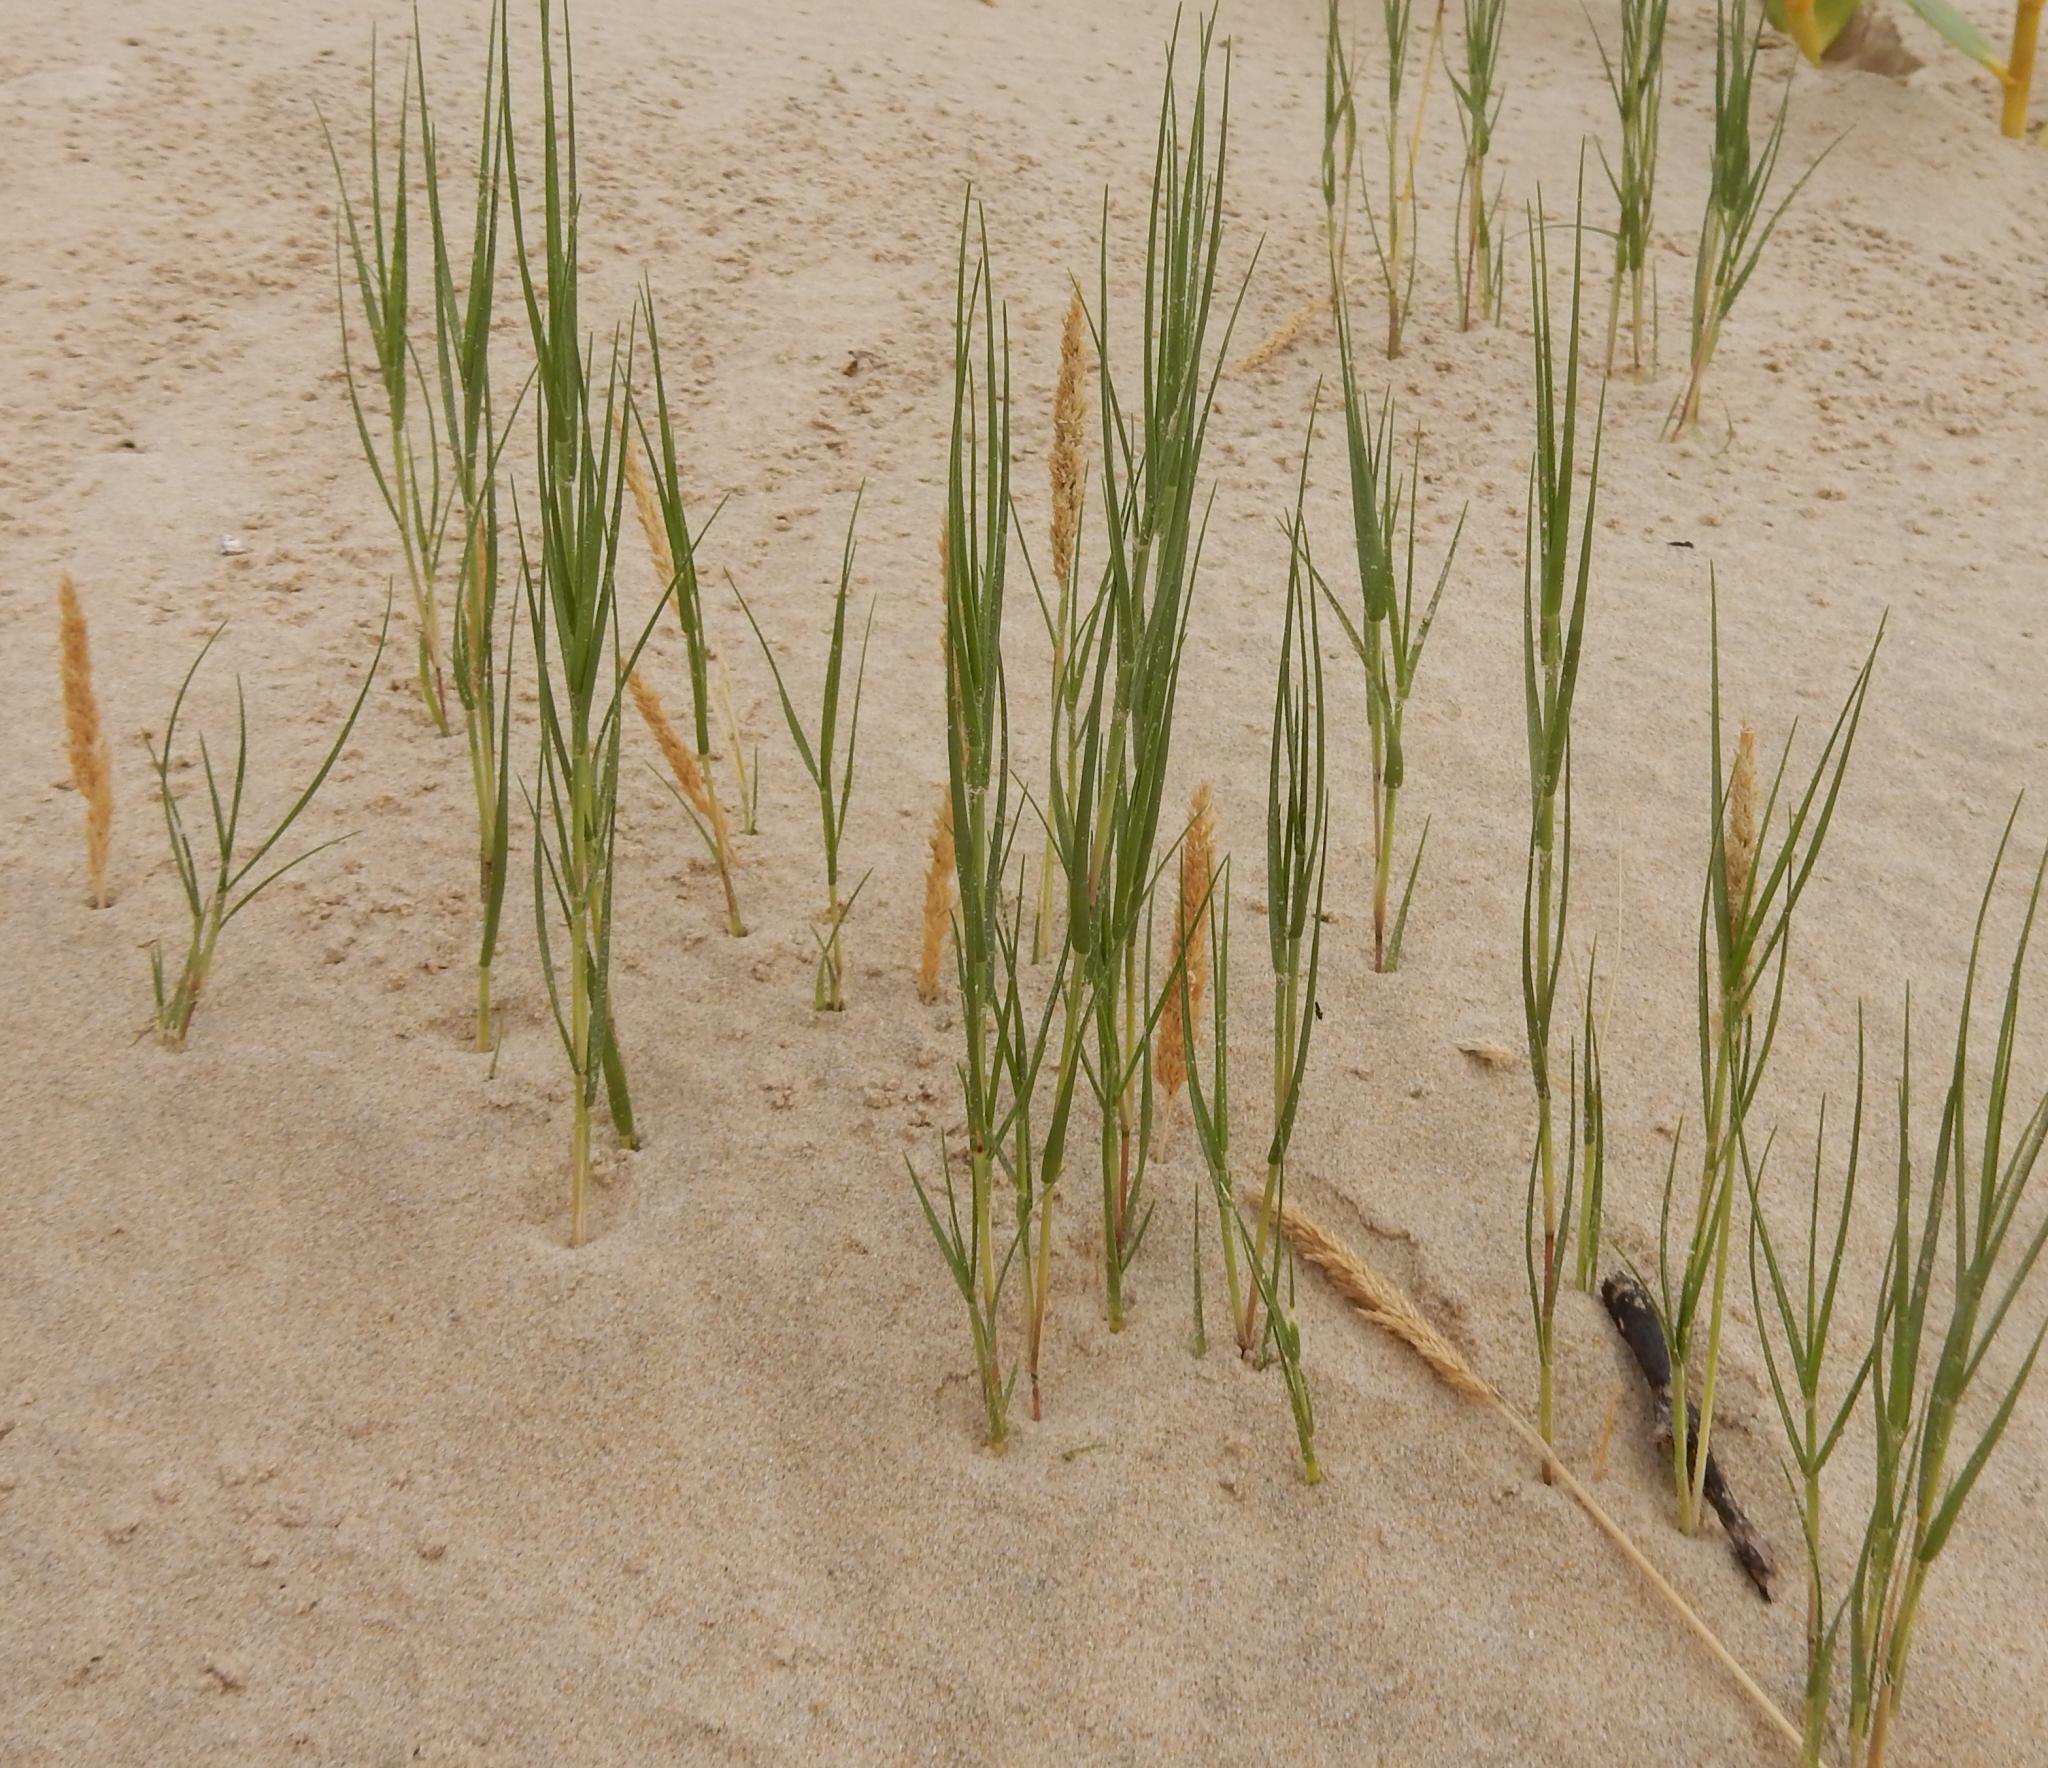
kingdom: Plantae
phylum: Tracheophyta
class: Liliopsida
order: Poales
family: Poaceae
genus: Sporobolus
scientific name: Sporobolus virginicus
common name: Beach dropseed
